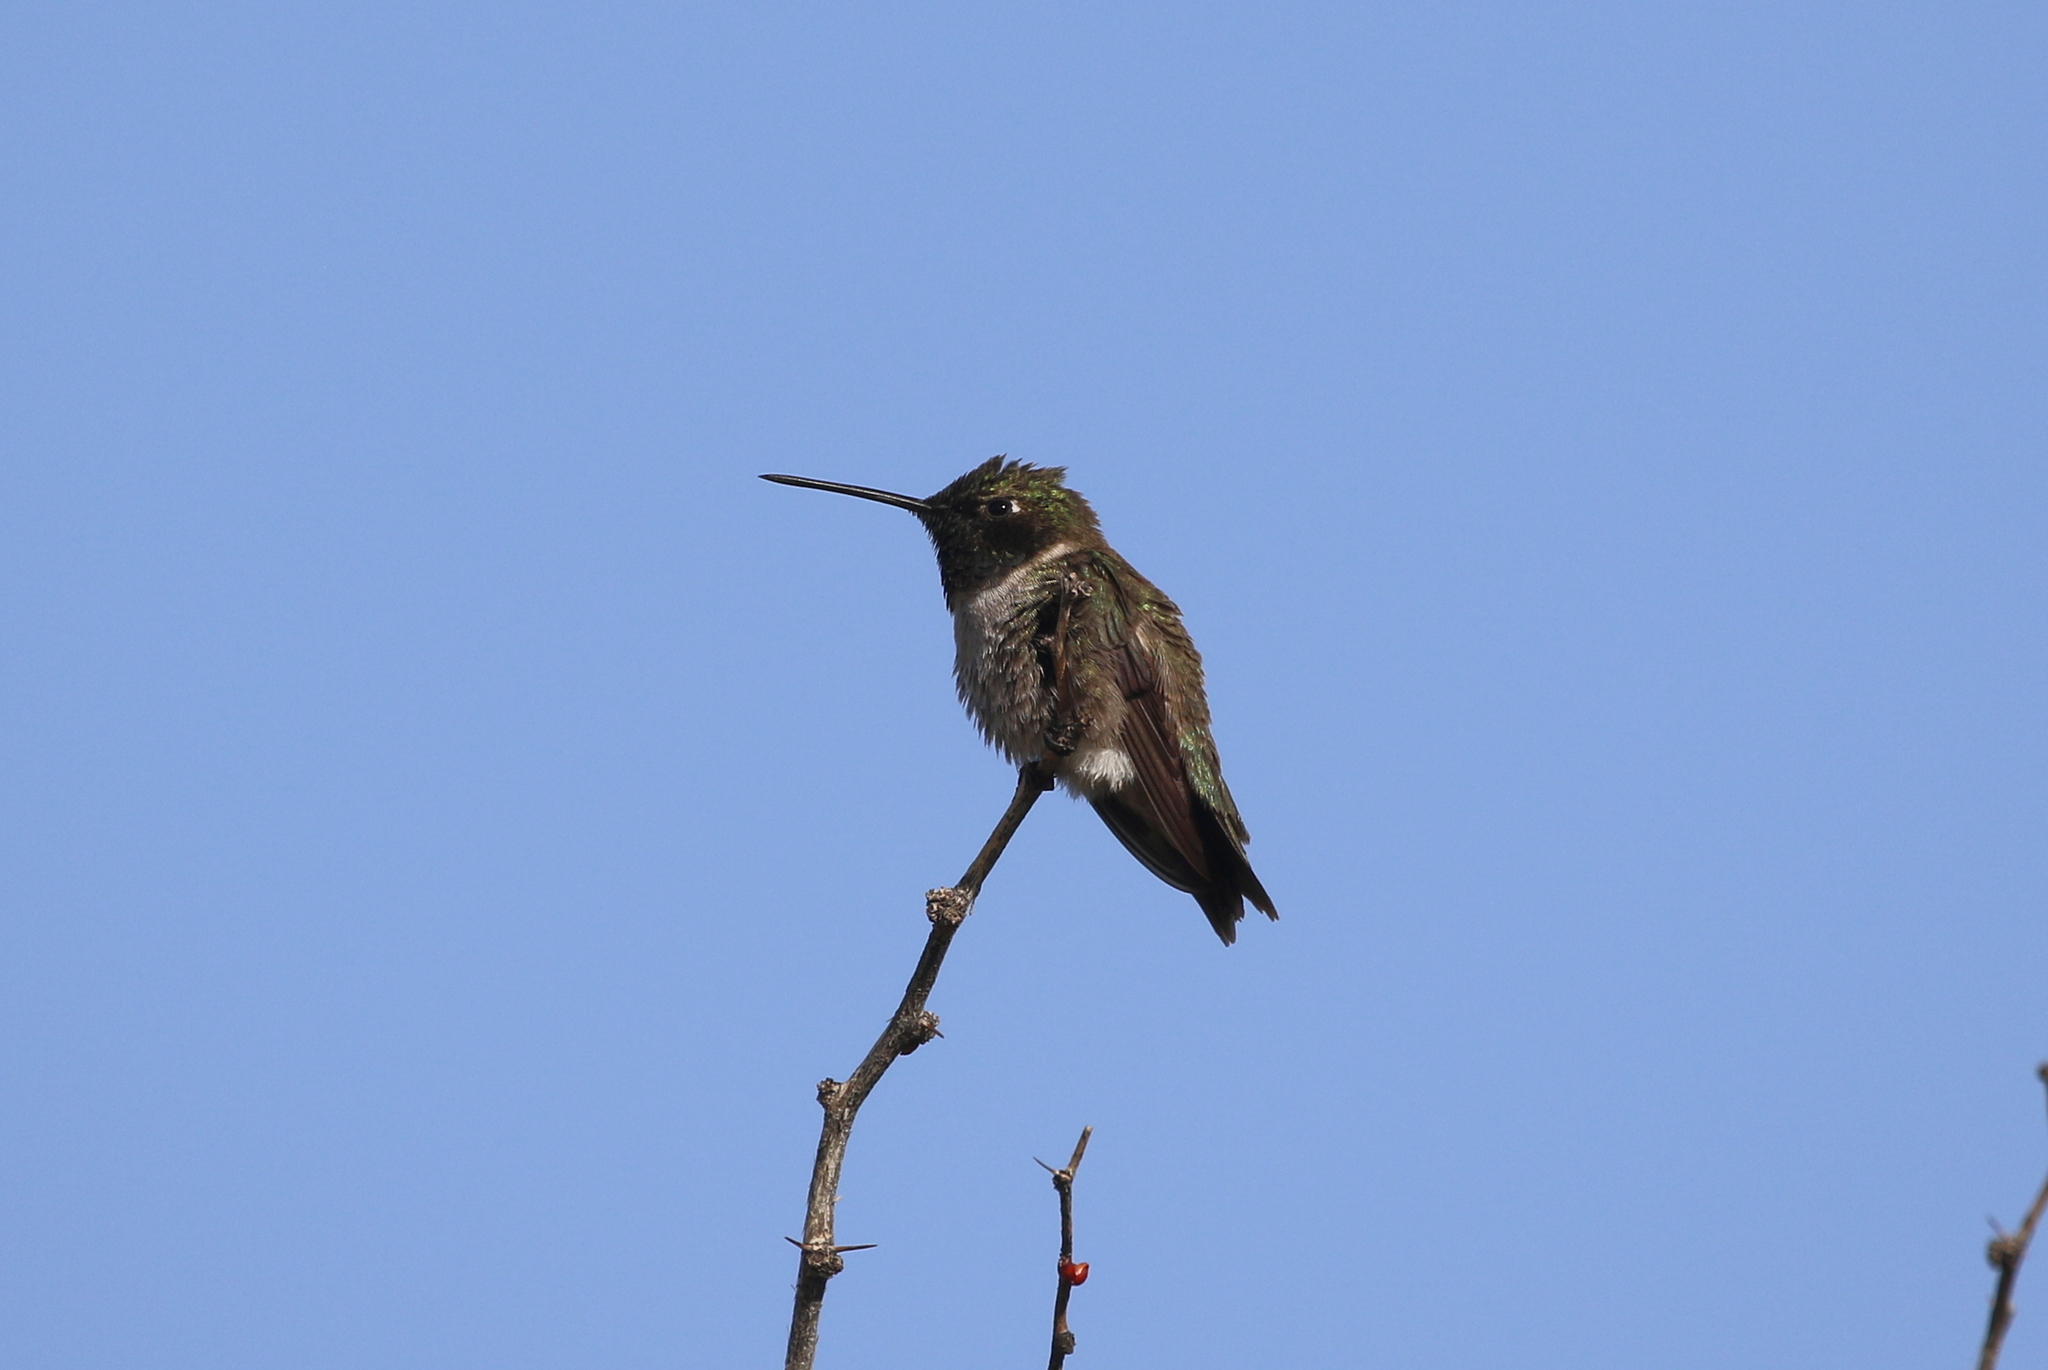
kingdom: Animalia
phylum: Chordata
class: Aves
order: Apodiformes
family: Trochilidae
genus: Archilochus
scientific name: Archilochus alexandri
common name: Black-chinned hummingbird
